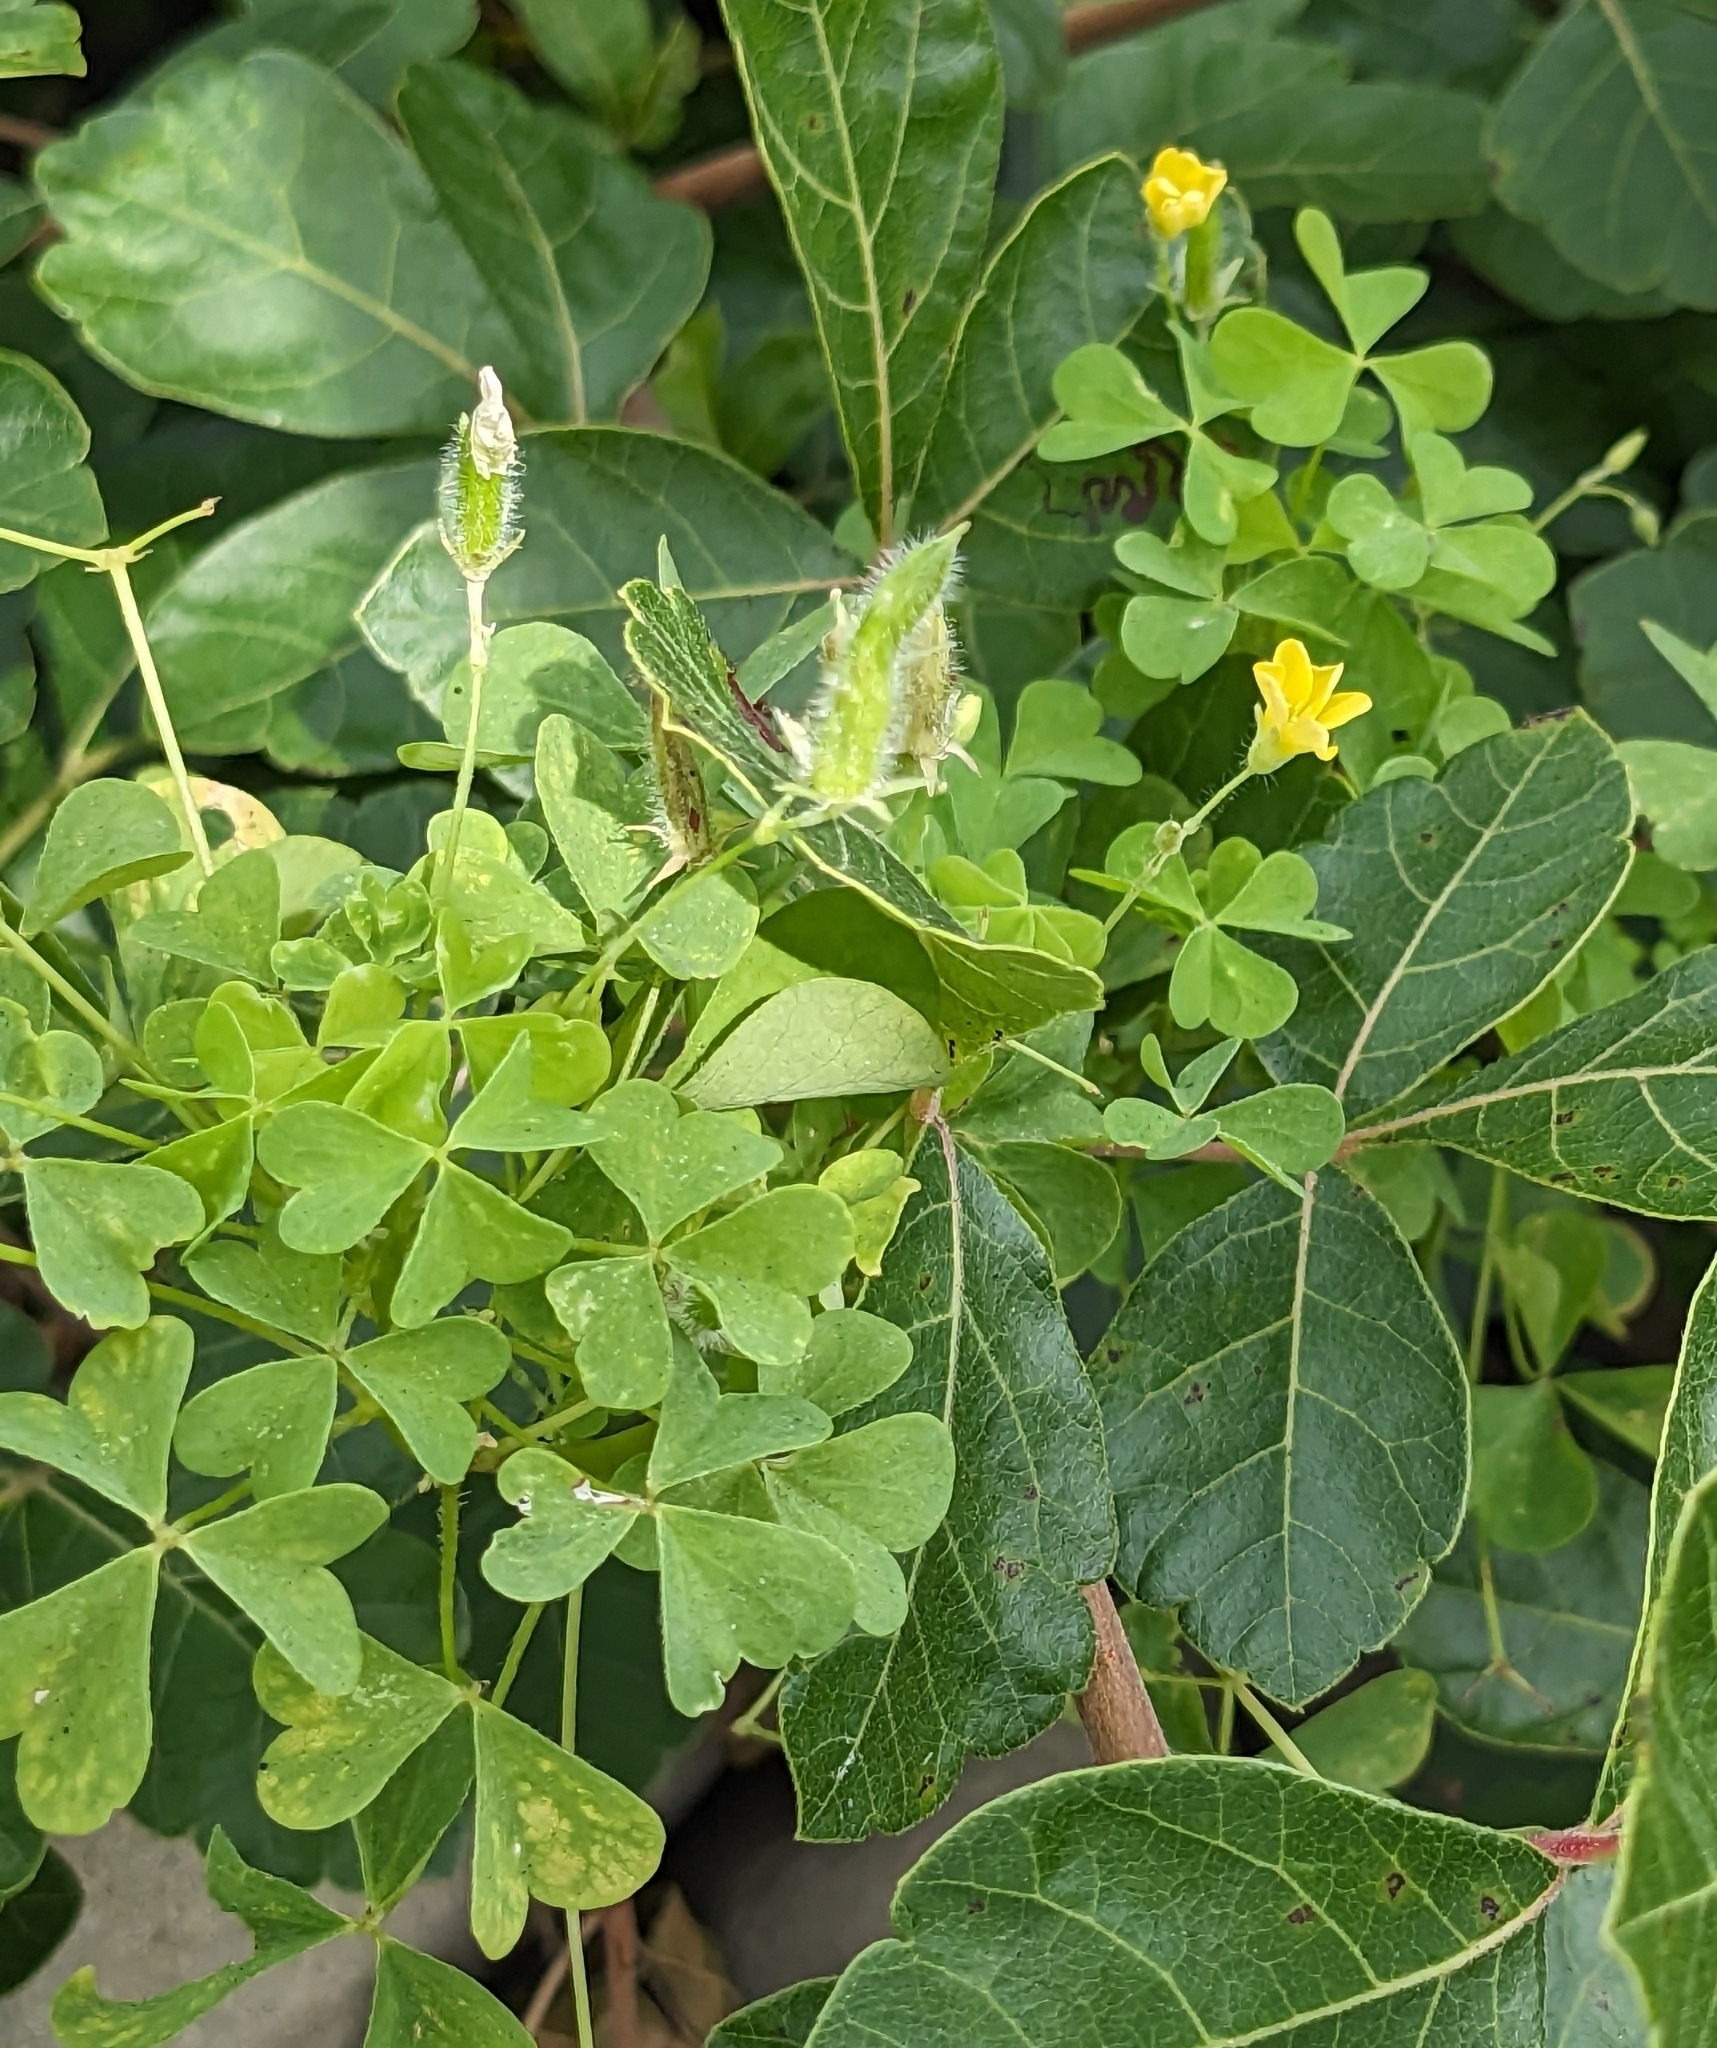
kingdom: Plantae
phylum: Tracheophyta
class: Magnoliopsida
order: Oxalidales
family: Oxalidaceae
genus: Oxalis
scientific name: Oxalis stricta
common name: Upright yellow-sorrel
